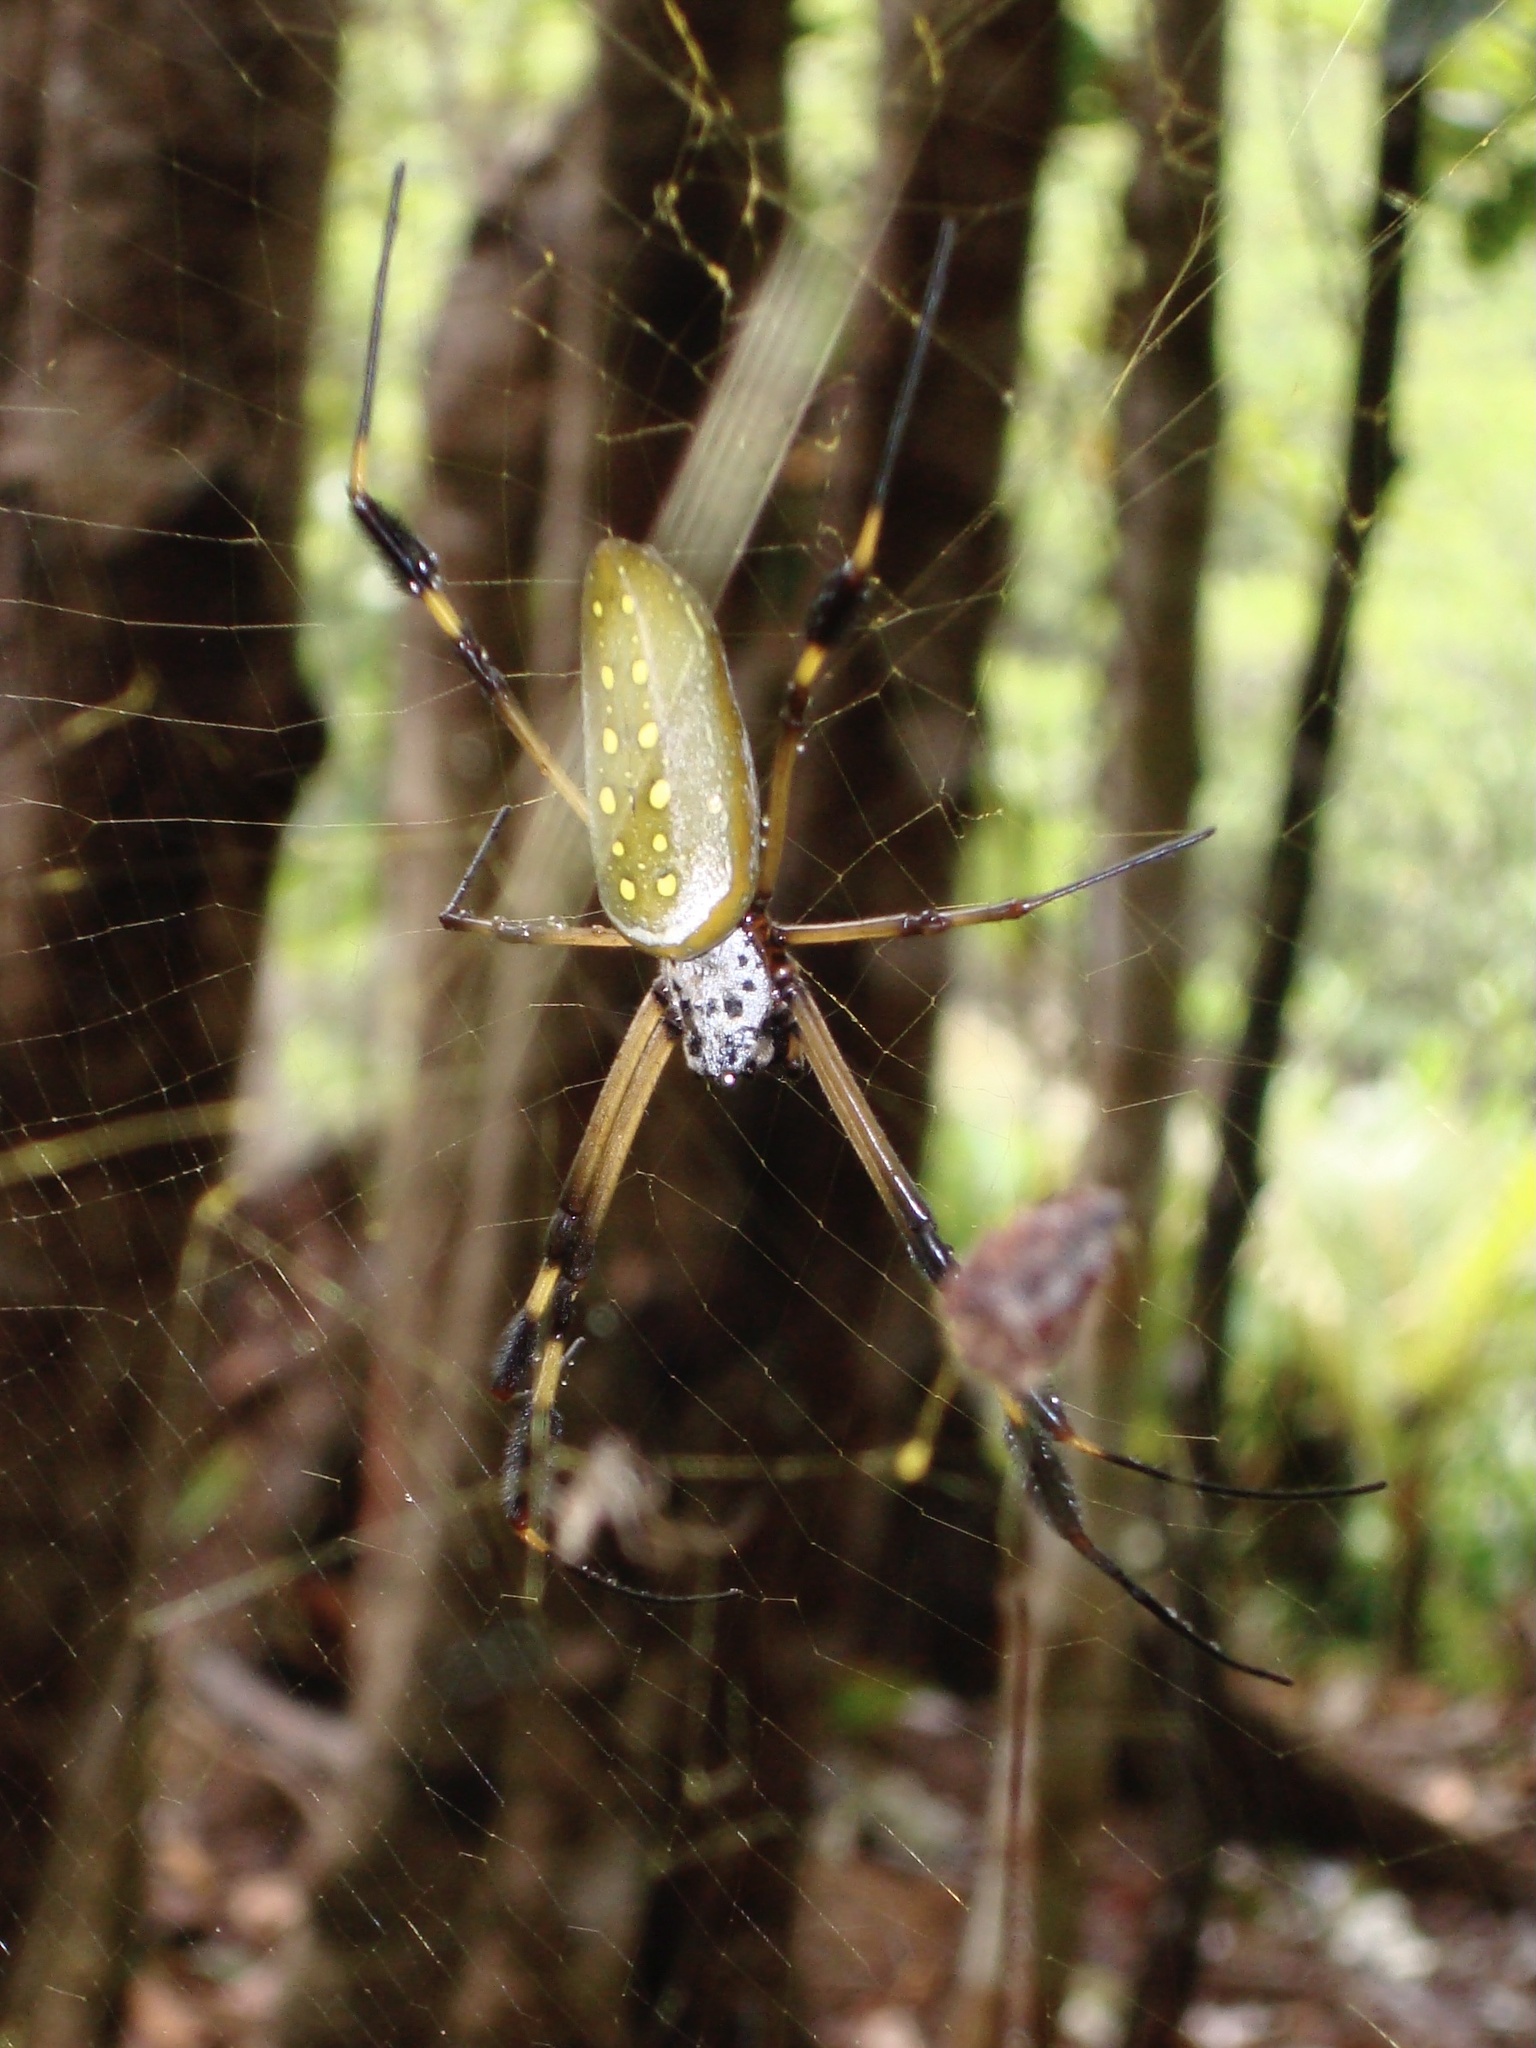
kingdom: Animalia
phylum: Arthropoda
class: Arachnida
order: Araneae
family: Araneidae
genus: Trichonephila
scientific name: Trichonephila clavipes
